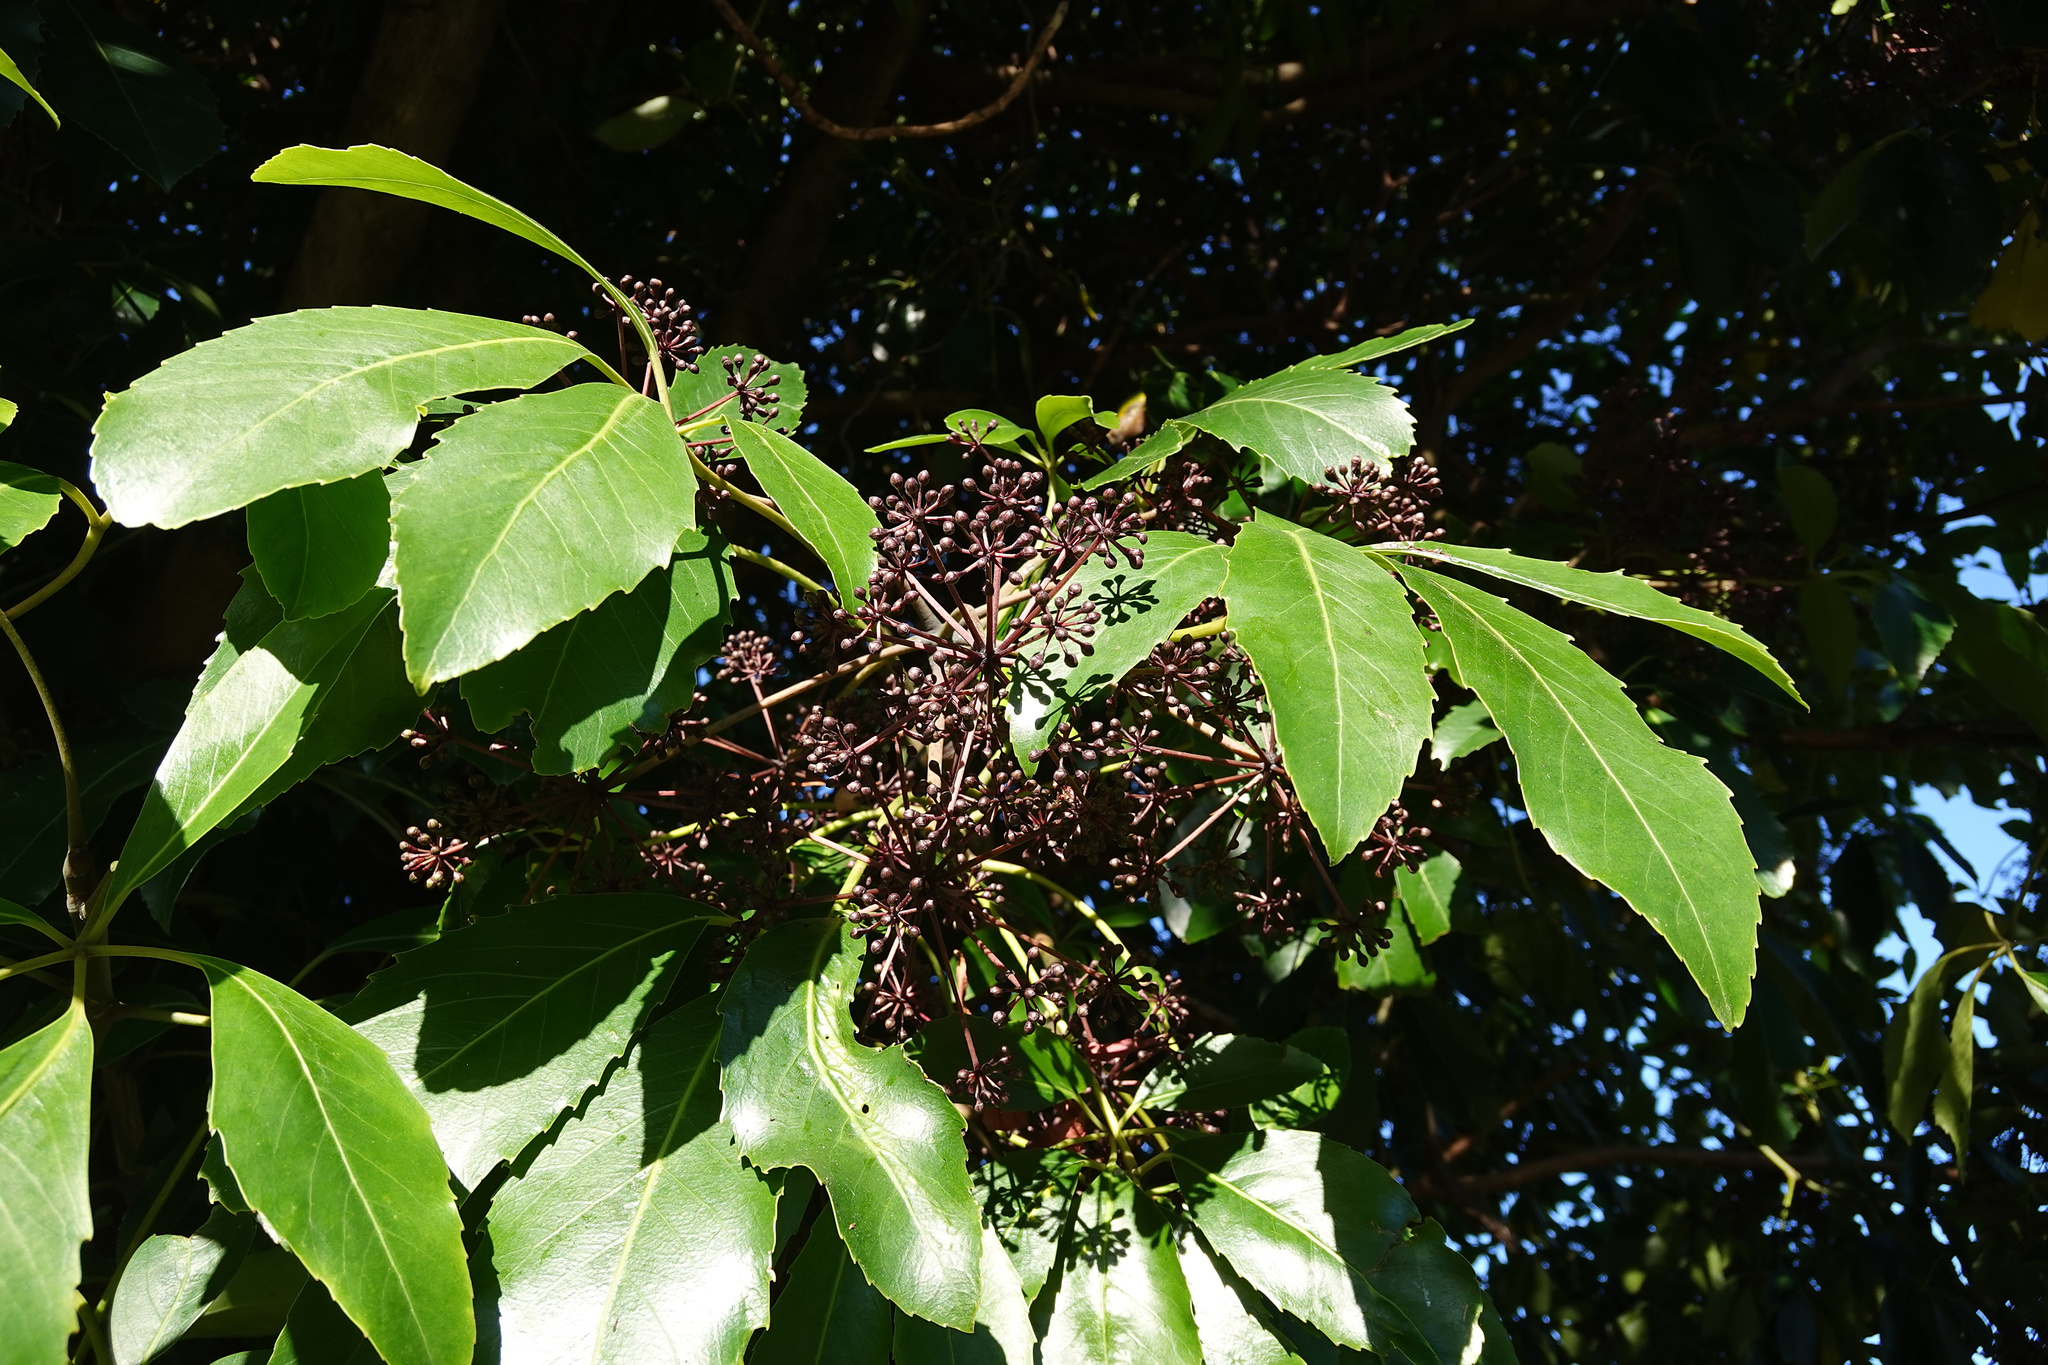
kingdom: Plantae
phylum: Tracheophyta
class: Magnoliopsida
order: Apiales
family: Araliaceae
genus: Neopanax
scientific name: Neopanax arboreus
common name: Five-fingers
